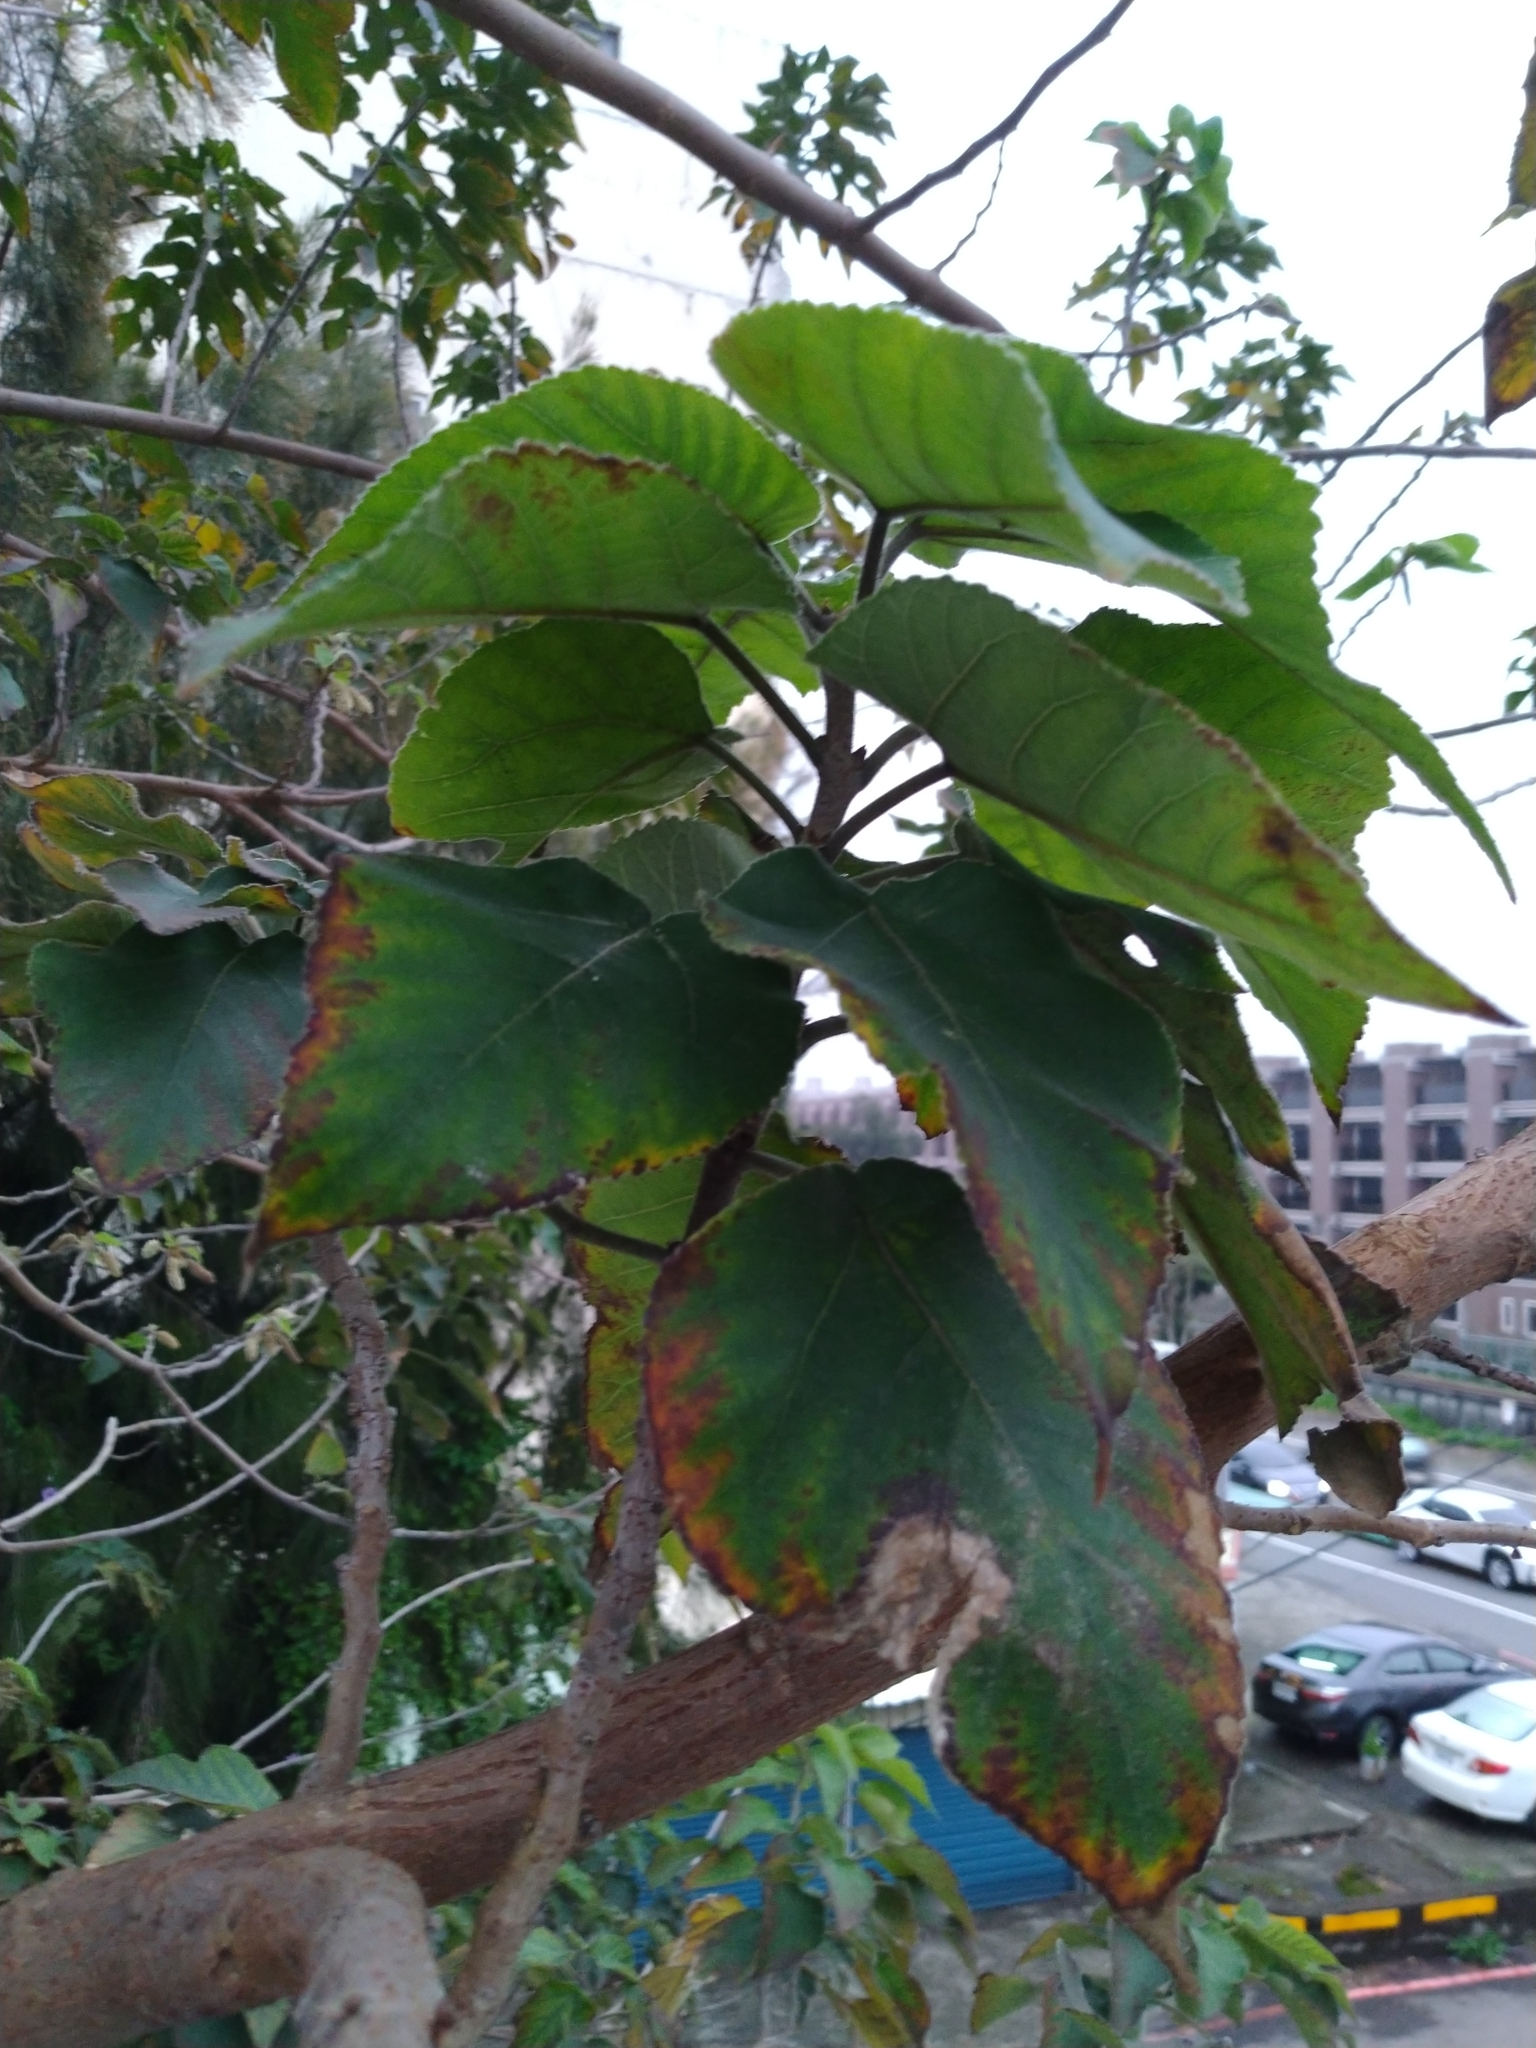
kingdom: Plantae
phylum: Tracheophyta
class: Magnoliopsida
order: Rosales
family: Moraceae
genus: Broussonetia
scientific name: Broussonetia papyrifera
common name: Paper mulberry
